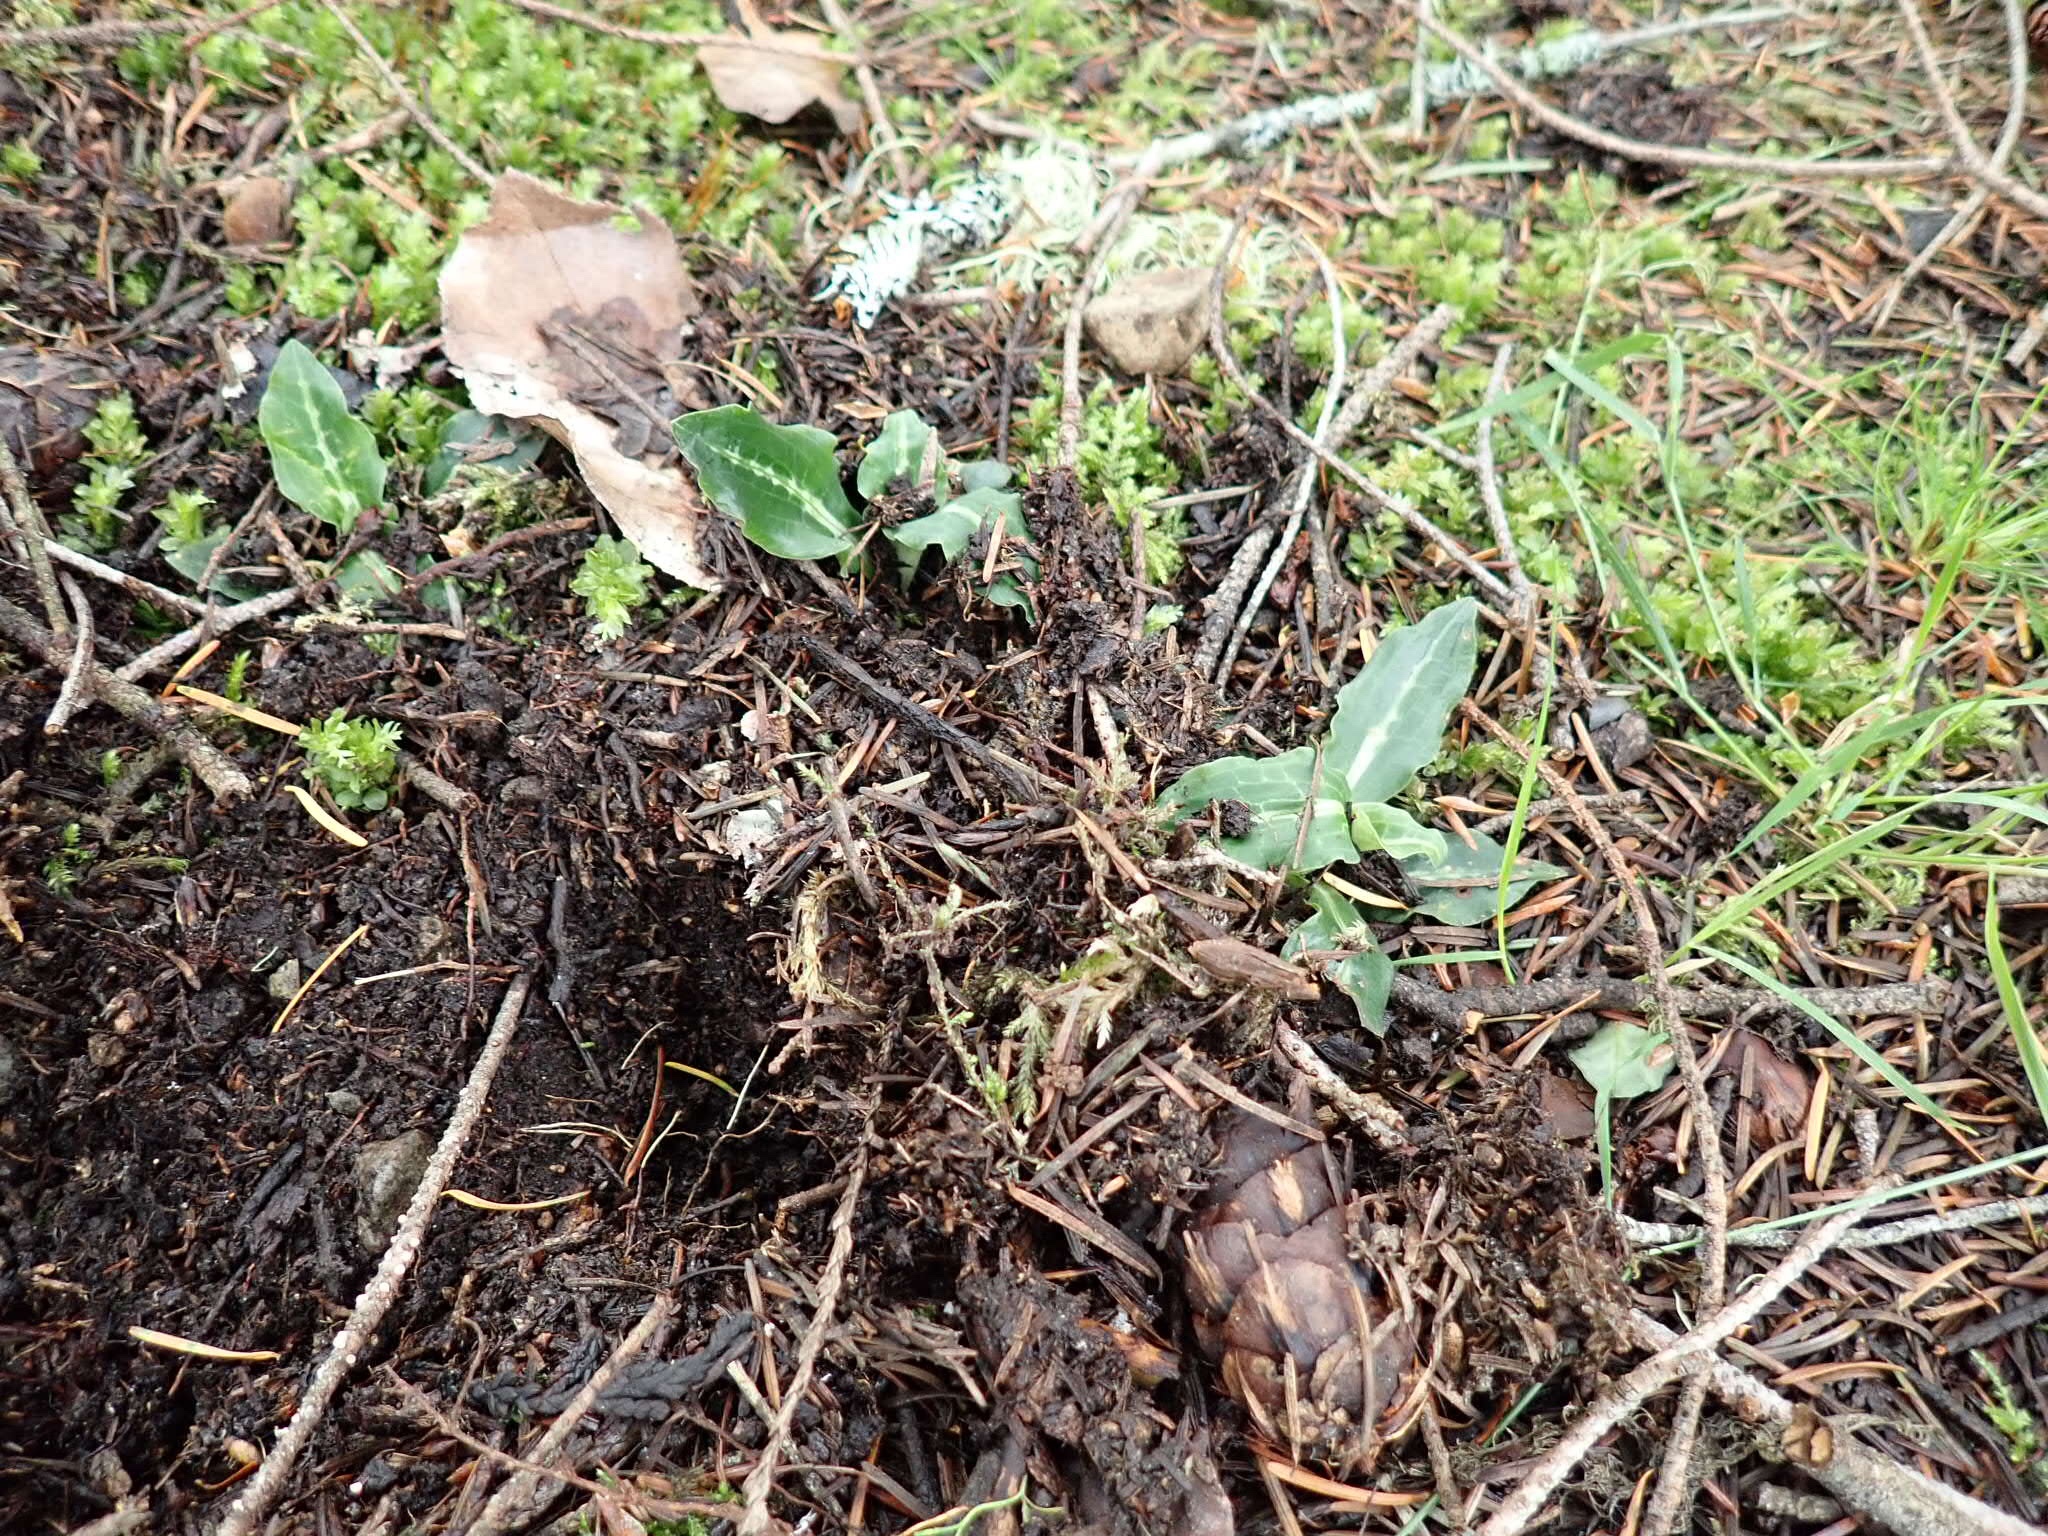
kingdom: Plantae
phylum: Tracheophyta
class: Liliopsida
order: Asparagales
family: Orchidaceae
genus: Goodyera
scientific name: Goodyera oblongifolia
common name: Giant rattlesnake-plantain
